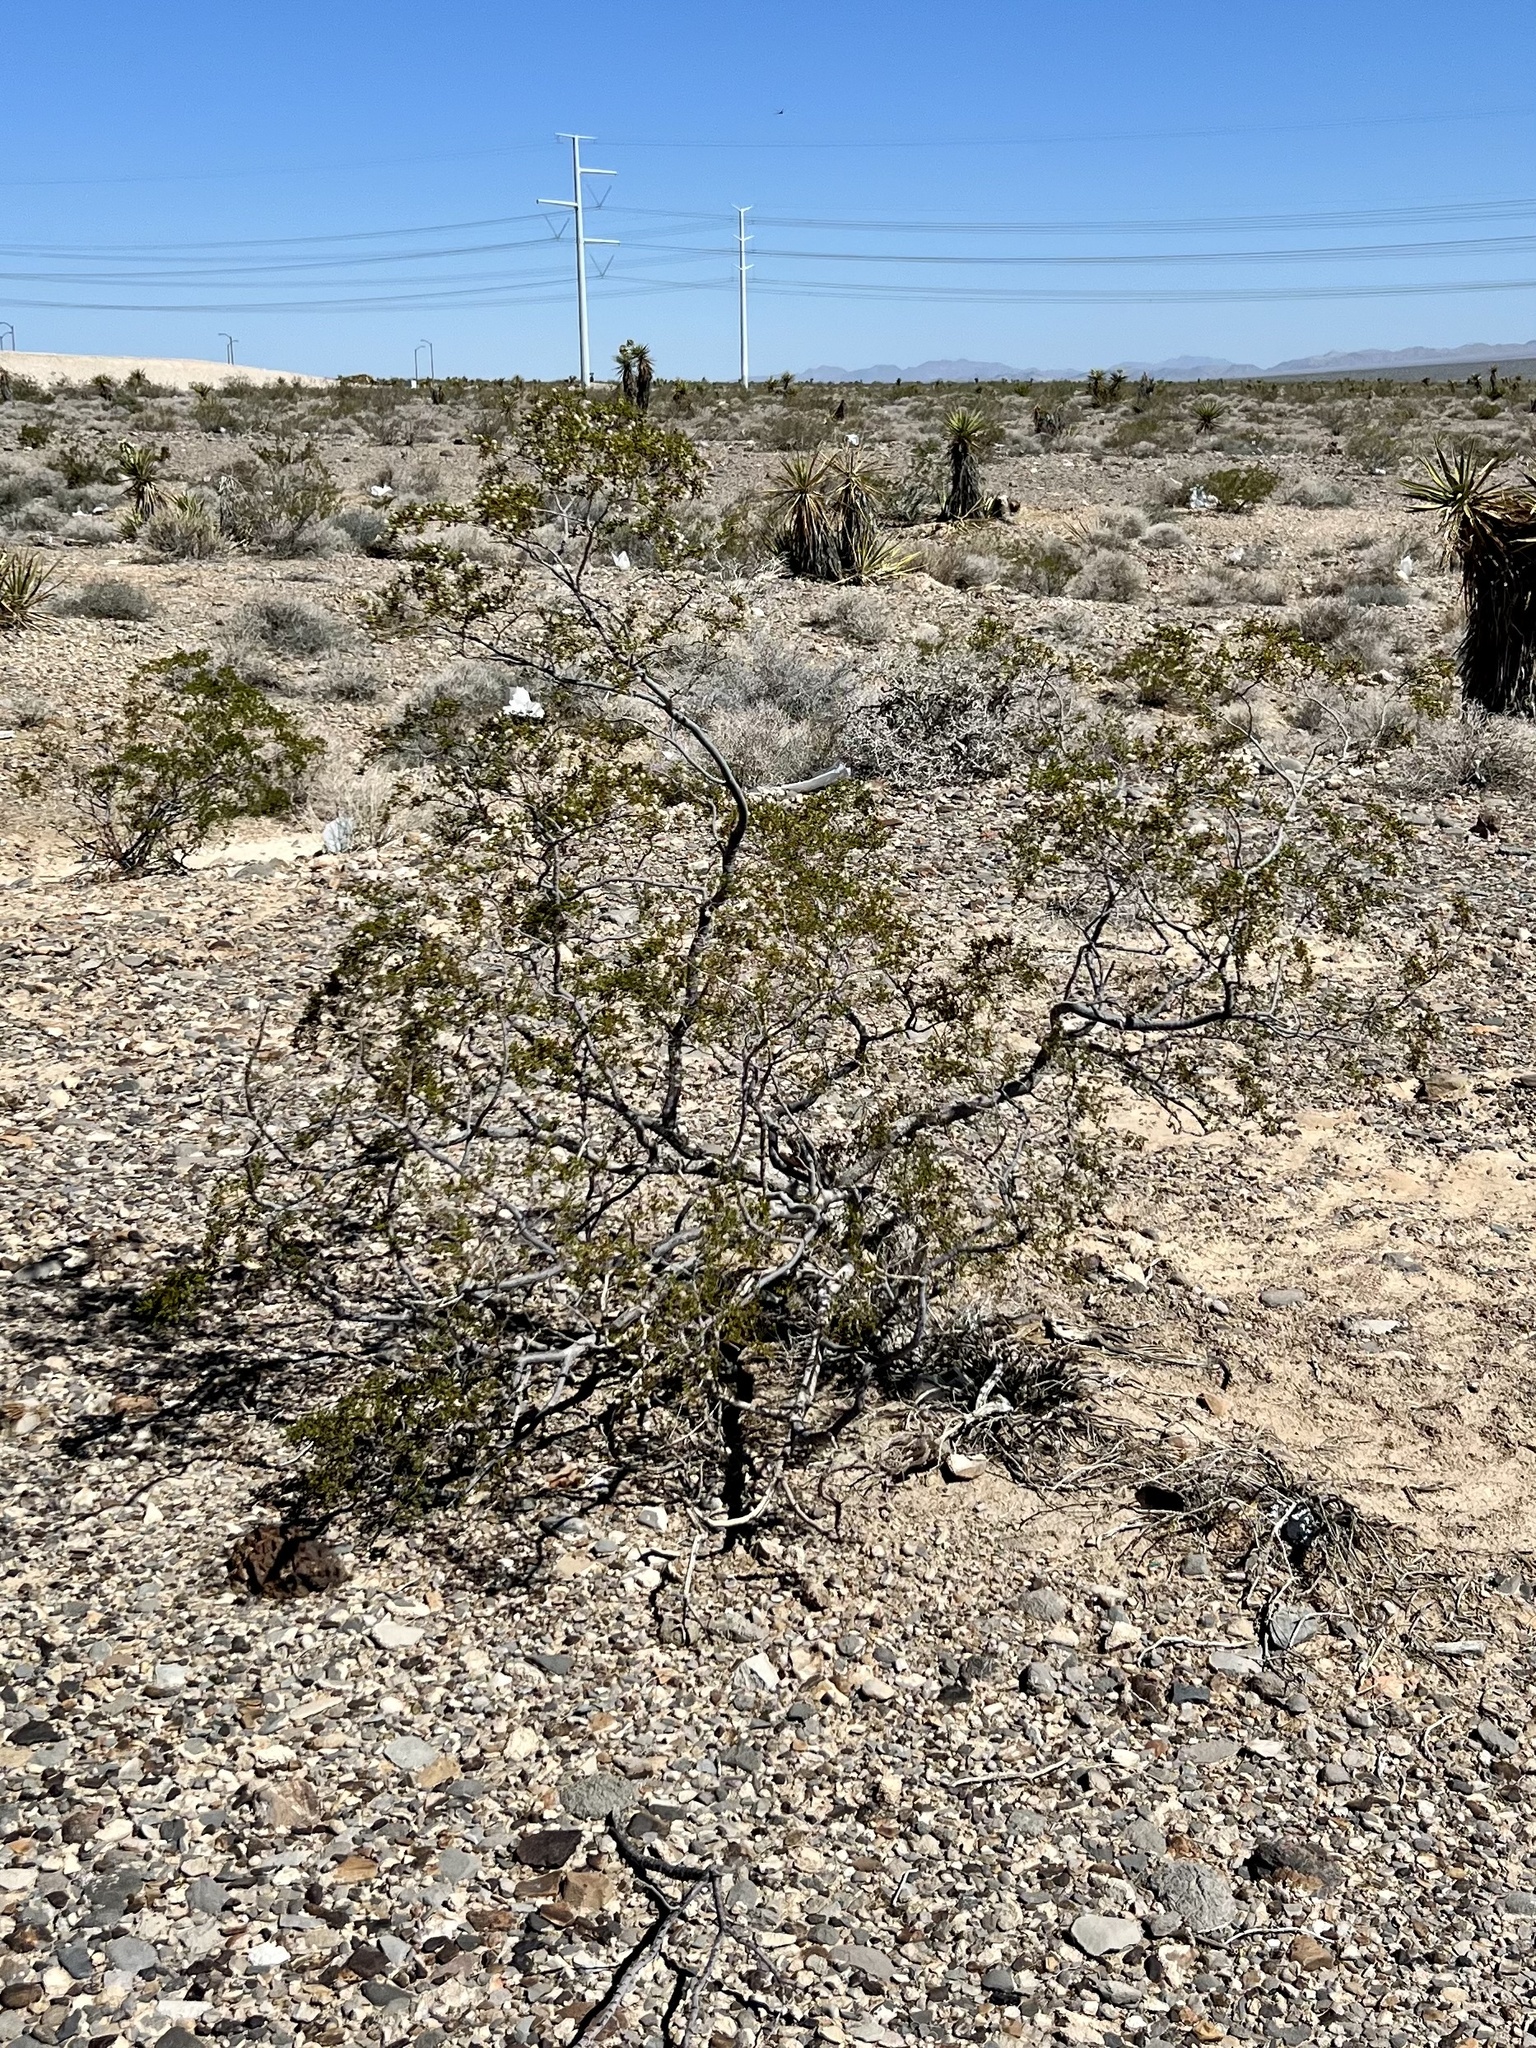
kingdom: Plantae
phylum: Tracheophyta
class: Magnoliopsida
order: Zygophyllales
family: Zygophyllaceae
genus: Larrea
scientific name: Larrea tridentata
